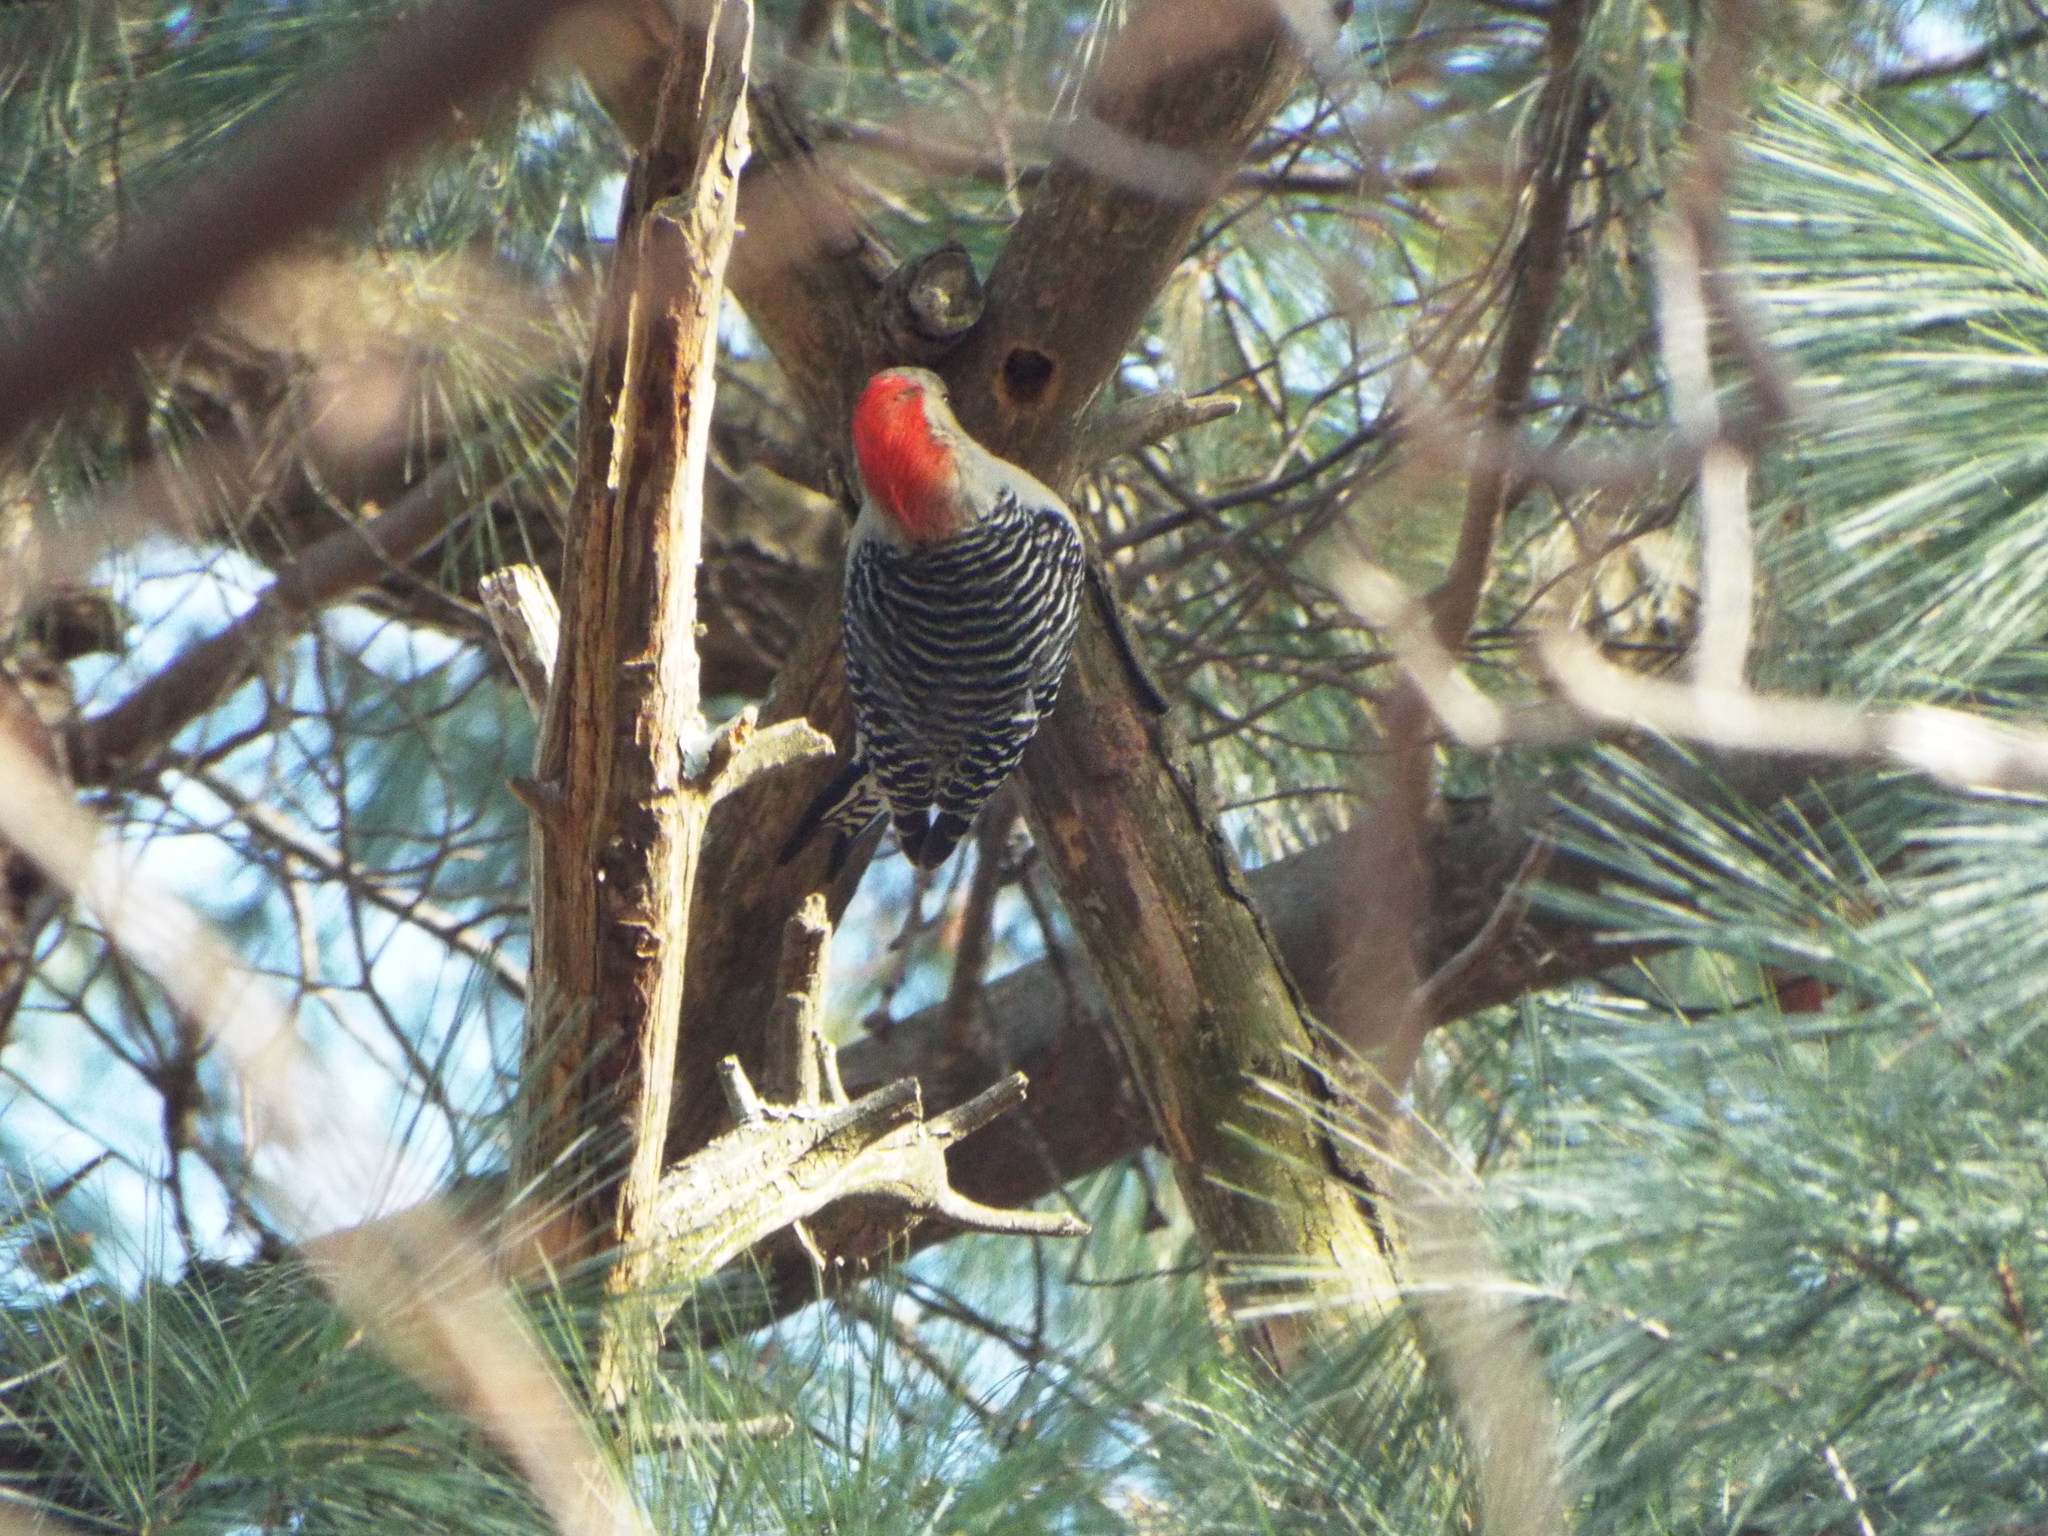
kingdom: Animalia
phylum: Chordata
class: Aves
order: Piciformes
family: Picidae
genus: Melanerpes
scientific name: Melanerpes carolinus
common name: Red-bellied woodpecker
